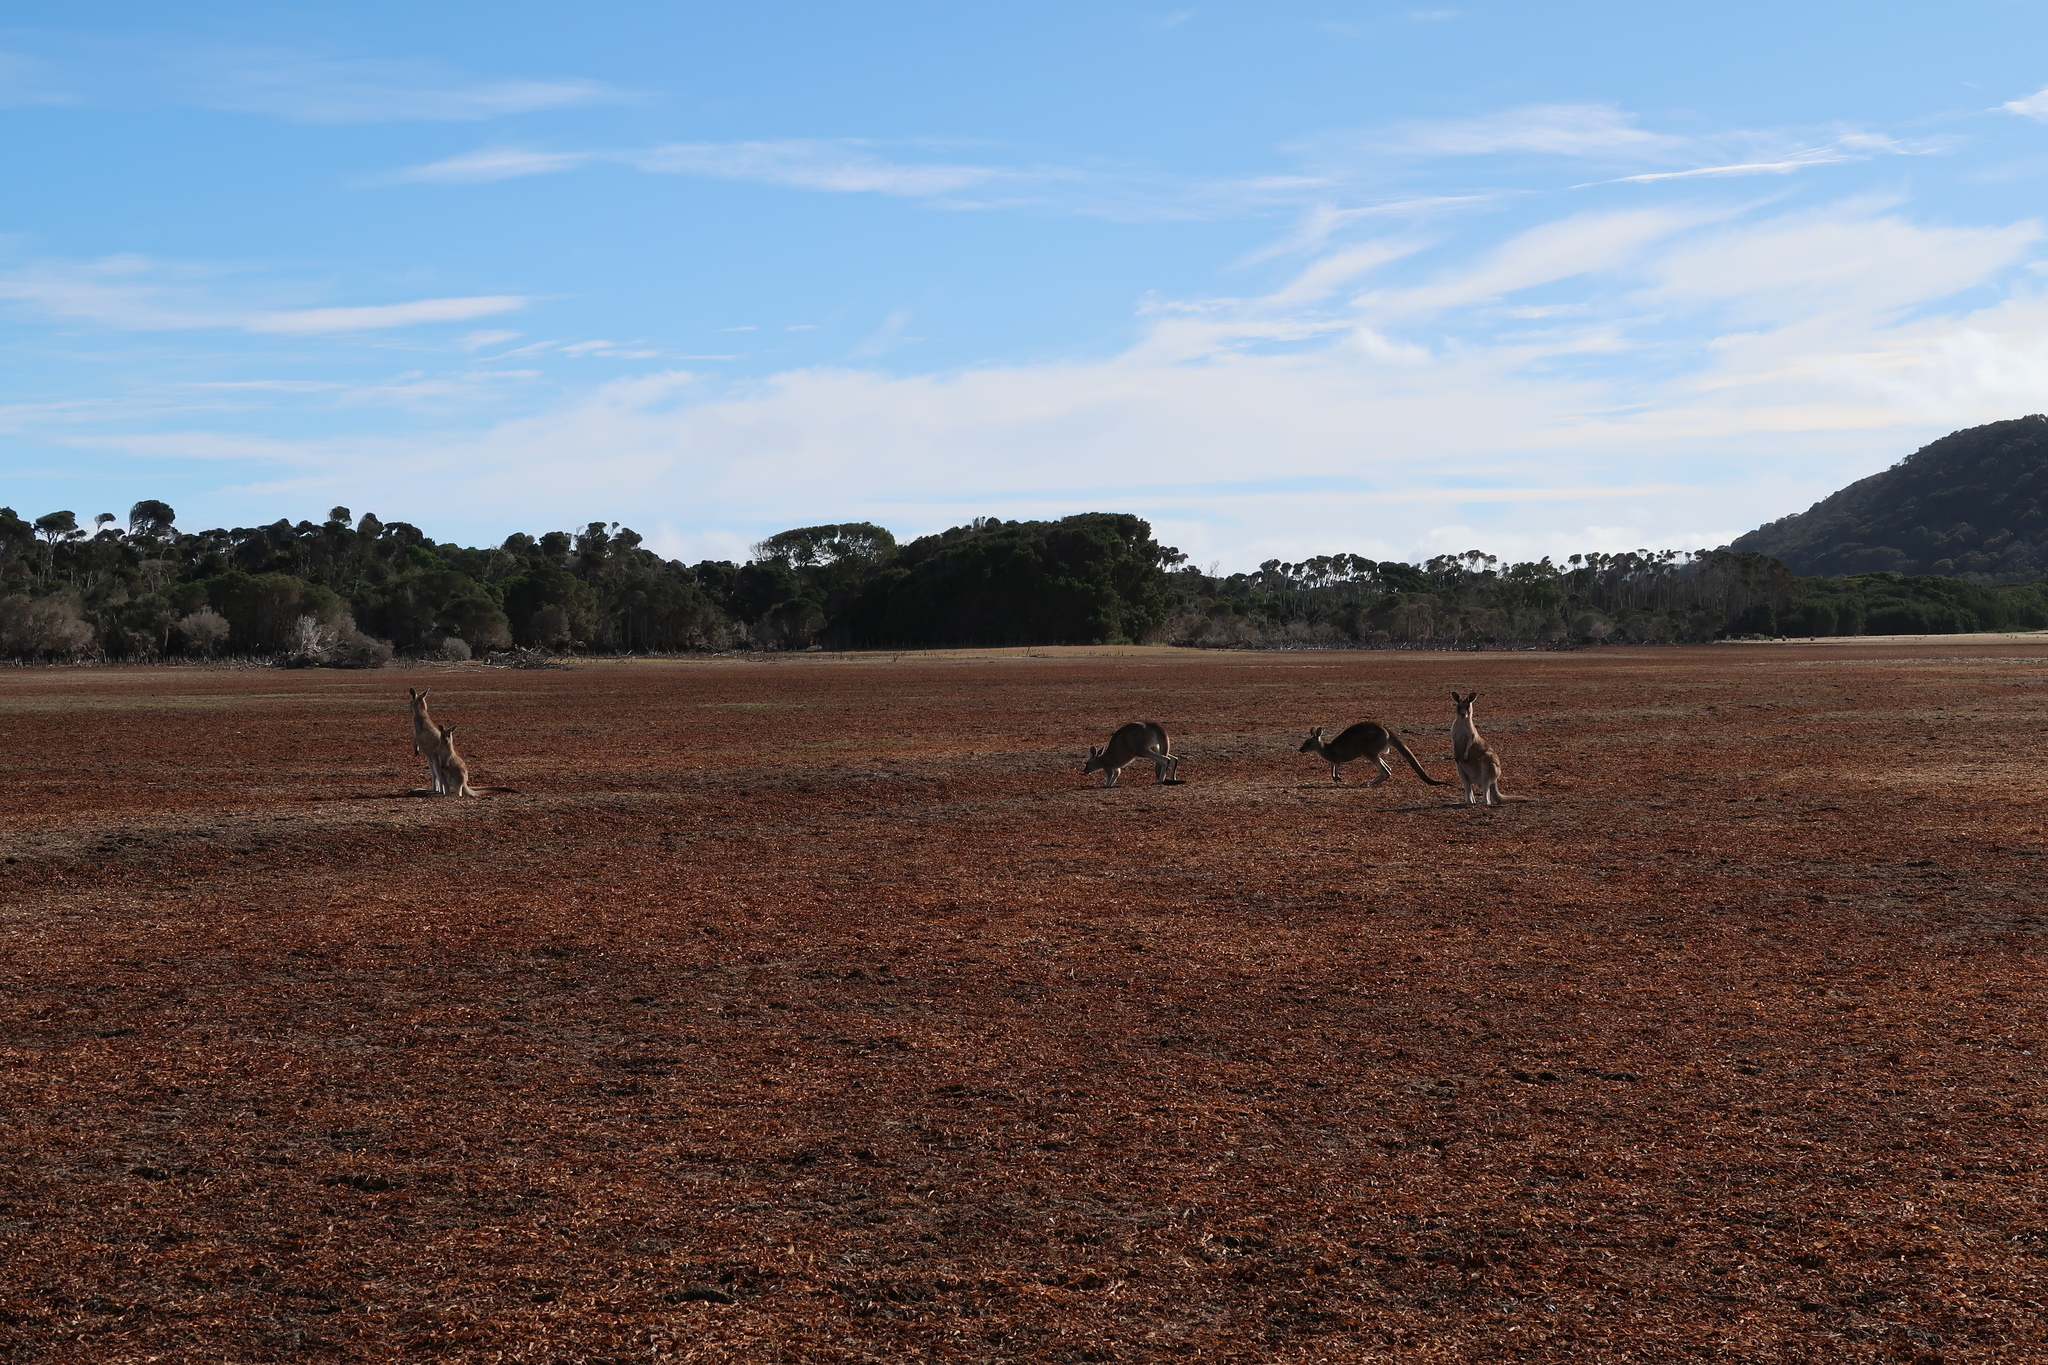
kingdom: Animalia
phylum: Chordata
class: Mammalia
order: Diprotodontia
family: Macropodidae
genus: Macropus
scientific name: Macropus giganteus
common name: Eastern grey kangaroo
